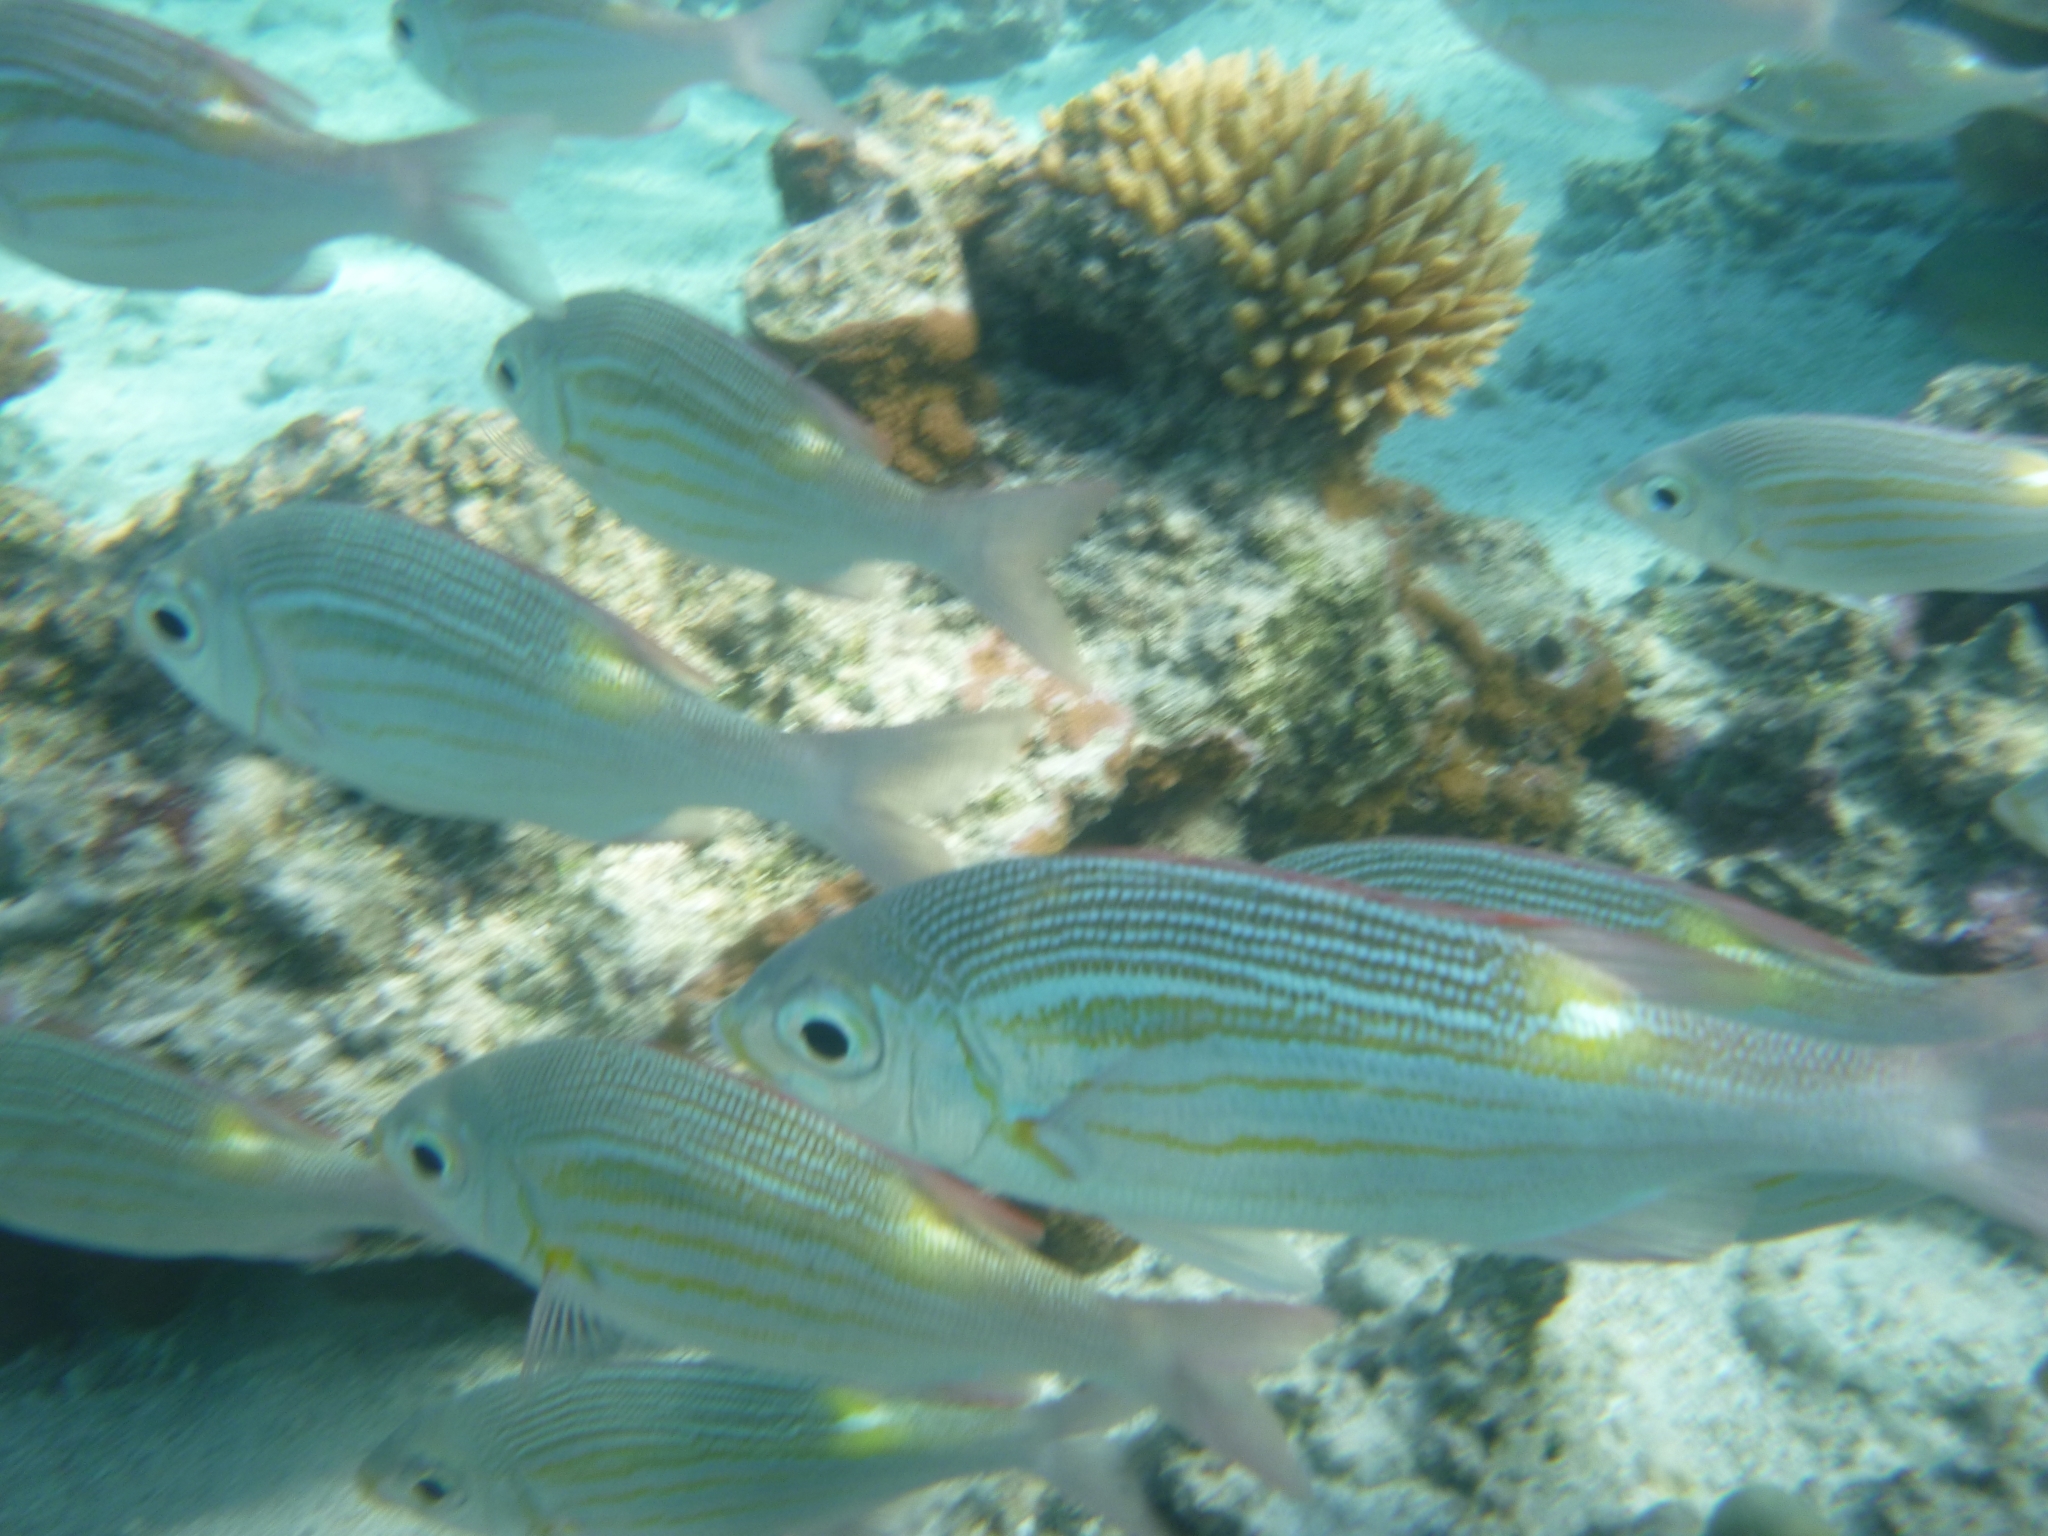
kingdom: Animalia
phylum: Chordata
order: Perciformes
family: Lethrinidae
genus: Gnathodentex
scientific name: Gnathodentex aureolineatus
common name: Gold-lined sea bream
